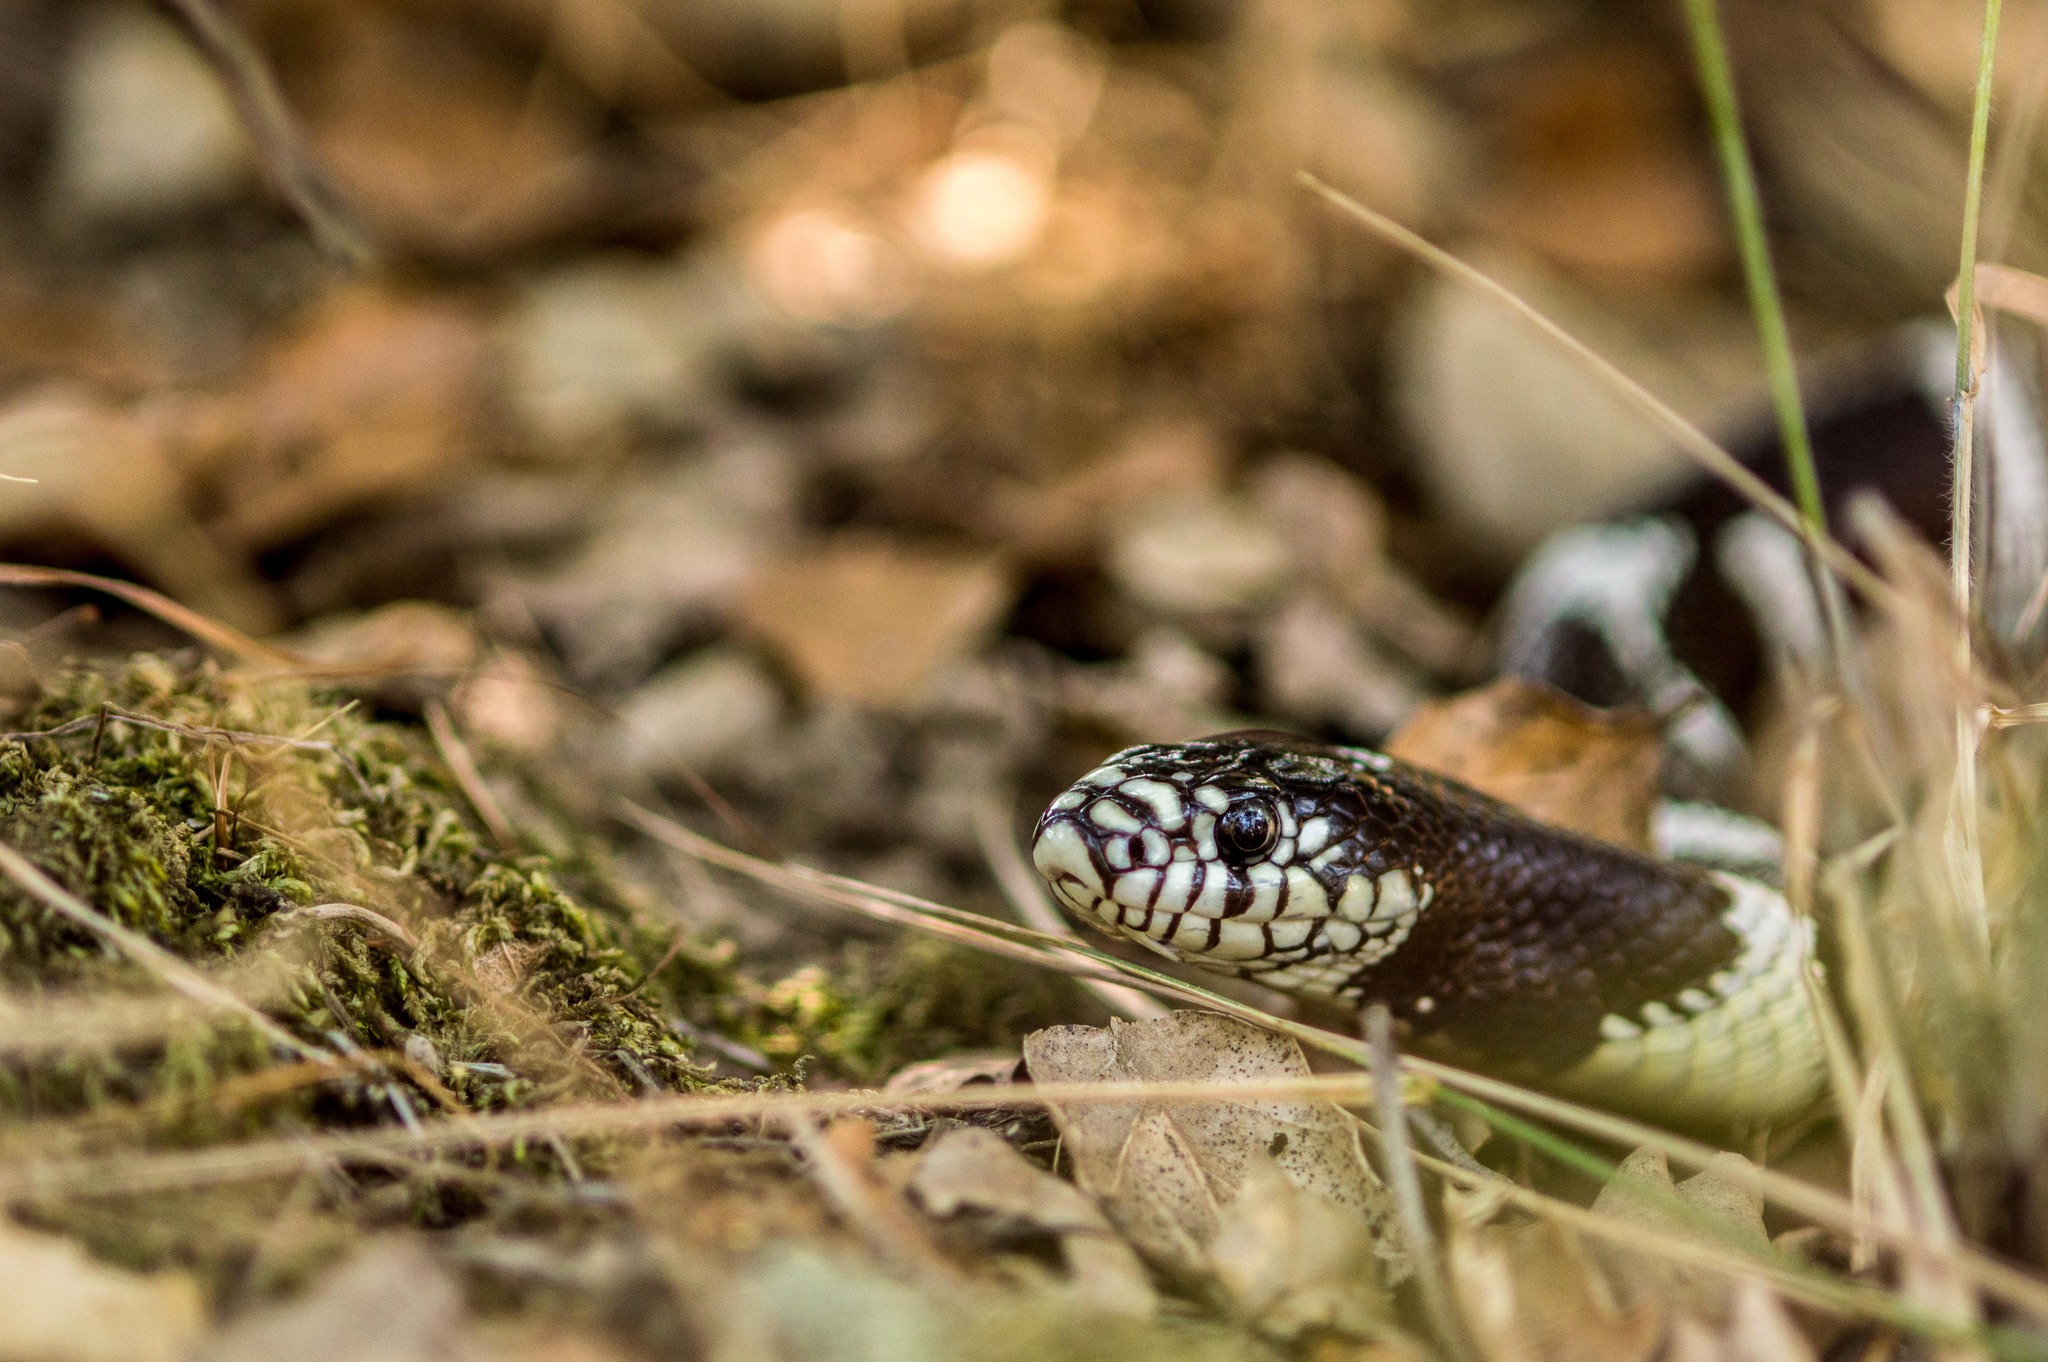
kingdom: Animalia
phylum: Chordata
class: Squamata
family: Colubridae
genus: Lampropeltis
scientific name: Lampropeltis californiae
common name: California kingsnake
